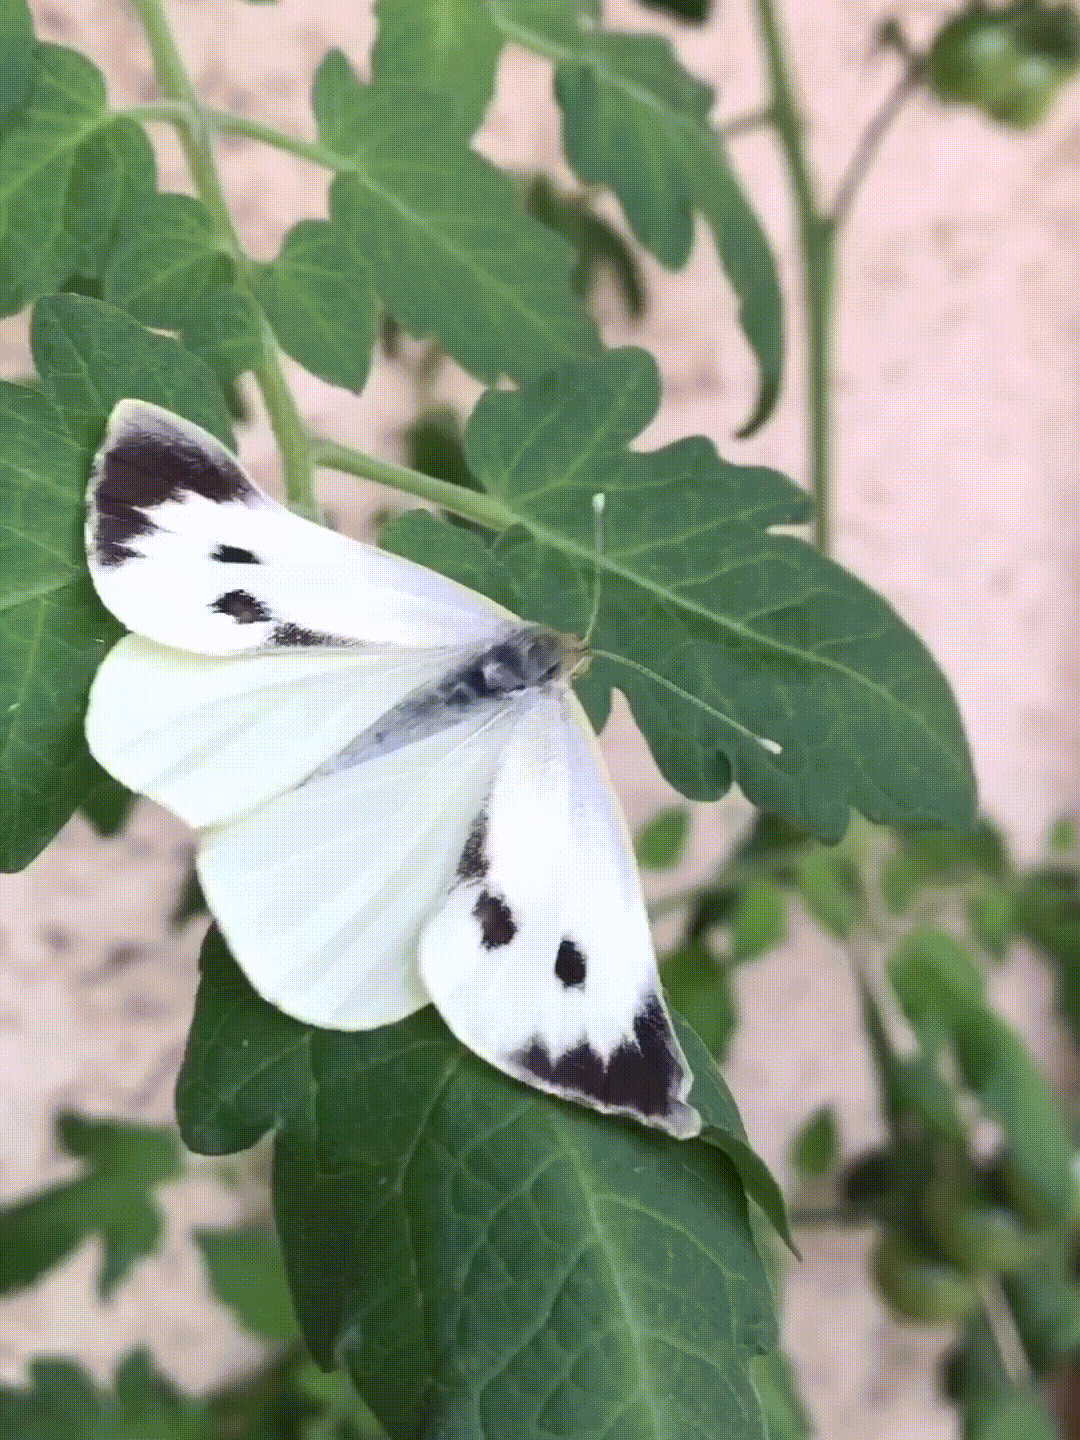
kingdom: Animalia
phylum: Arthropoda
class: Insecta
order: Lepidoptera
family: Pieridae
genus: Pieris
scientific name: Pieris brassicae
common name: Large white
